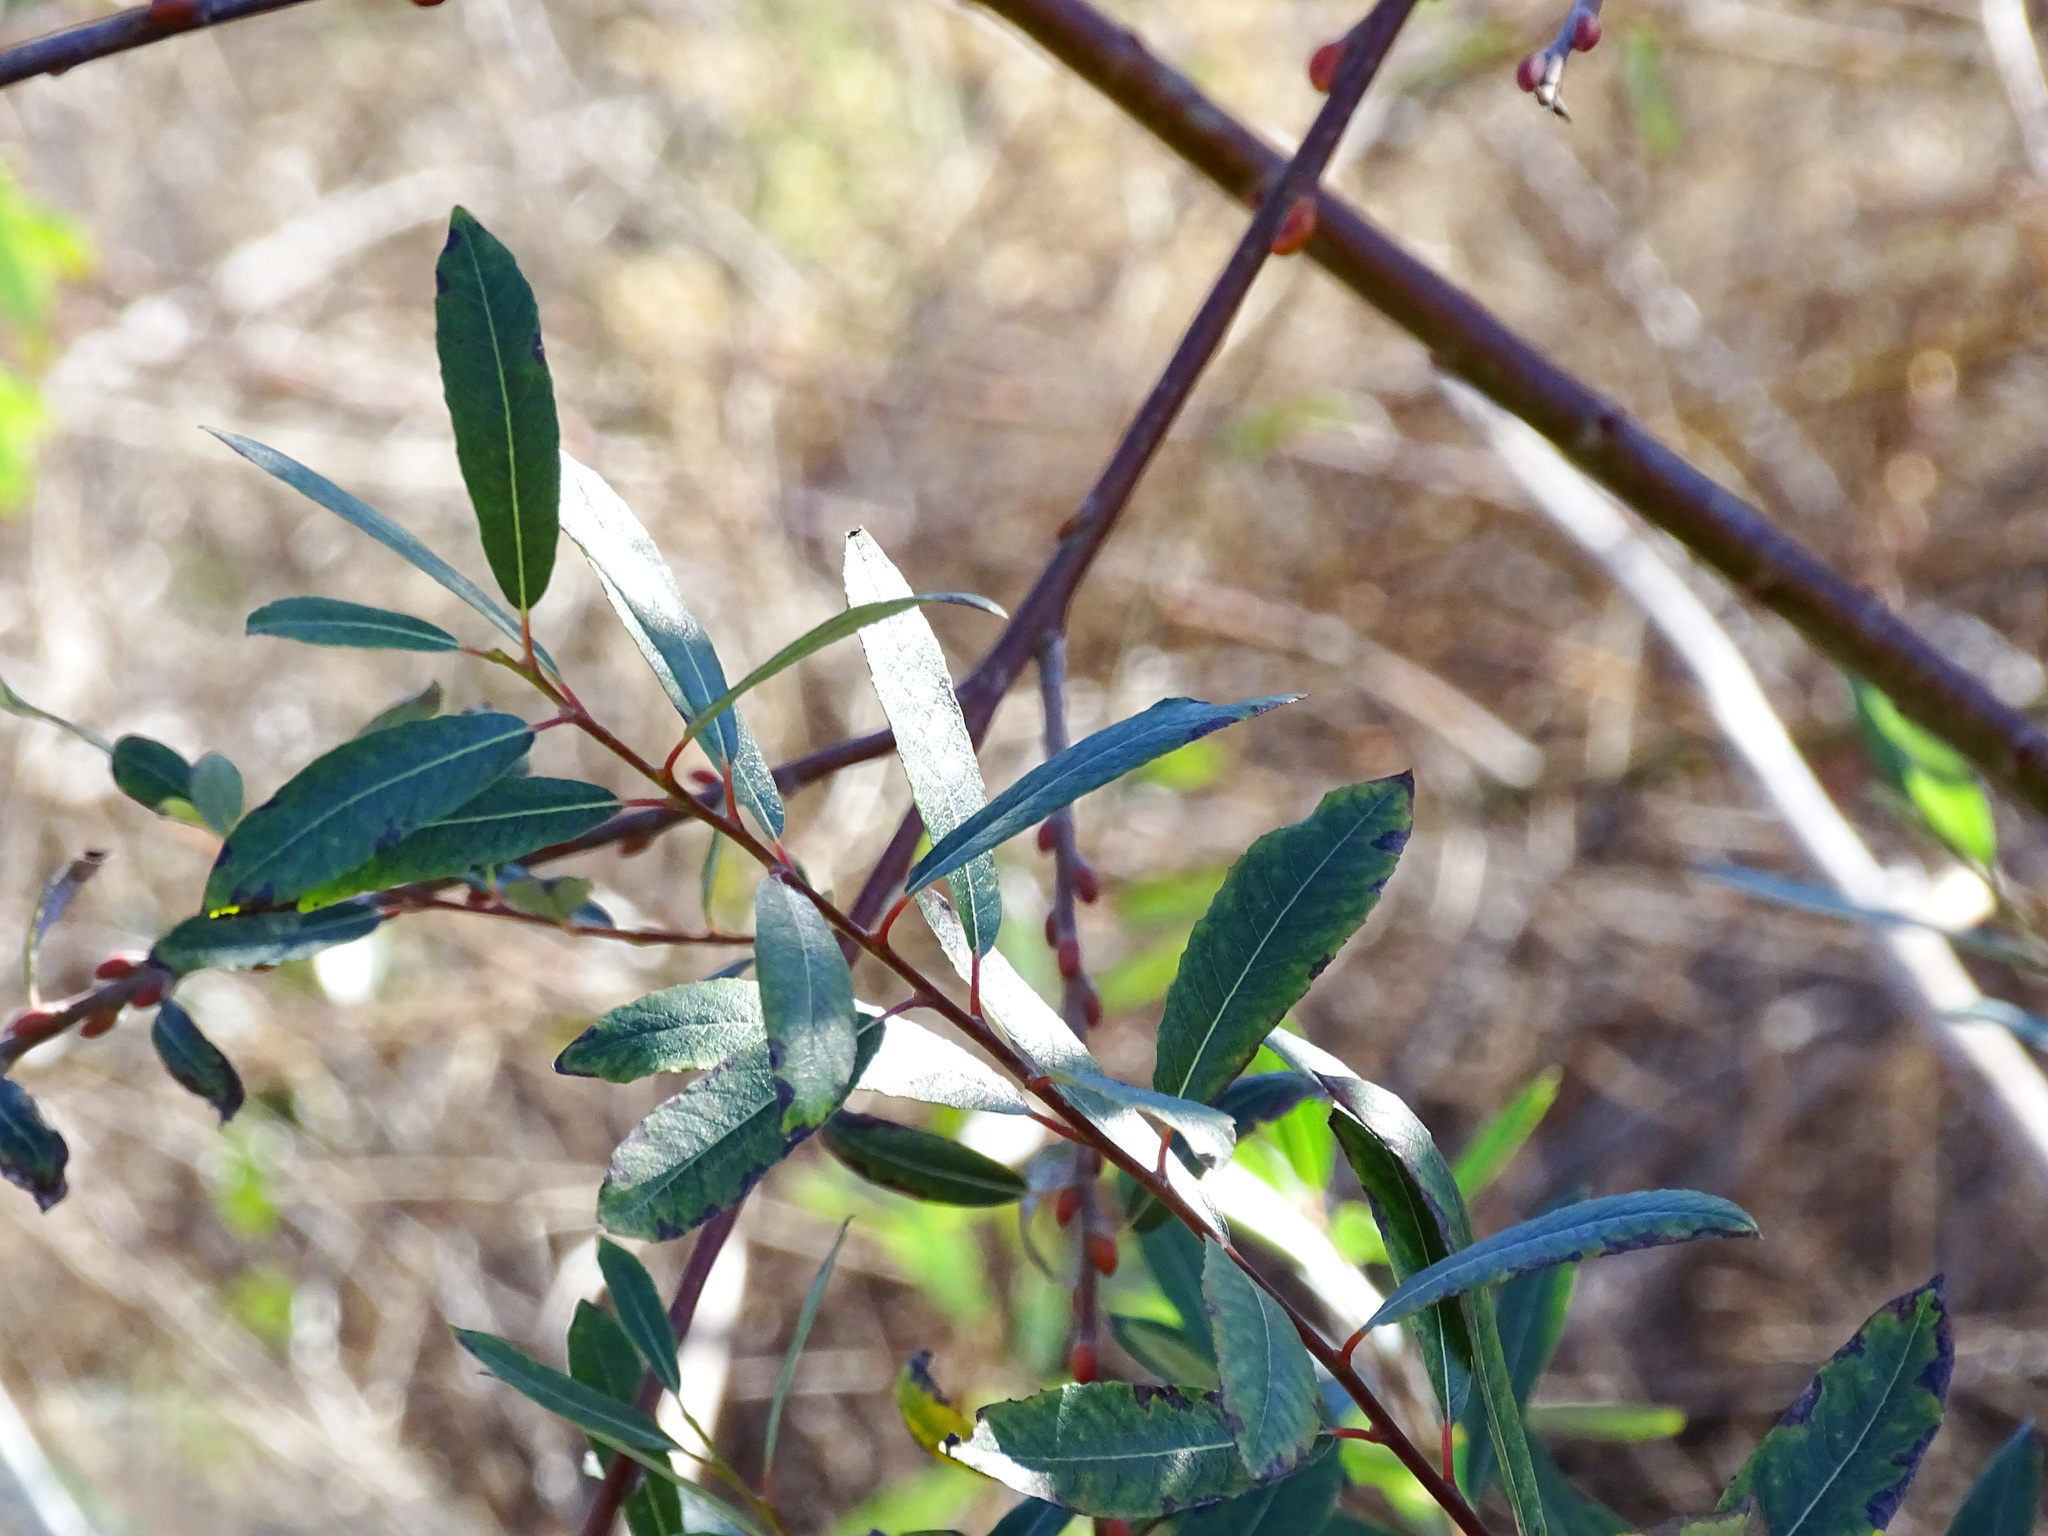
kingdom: Plantae
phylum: Tracheophyta
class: Magnoliopsida
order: Malpighiales
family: Salicaceae
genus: Salix
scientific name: Salix lasiolepis
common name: Arroyo willow
